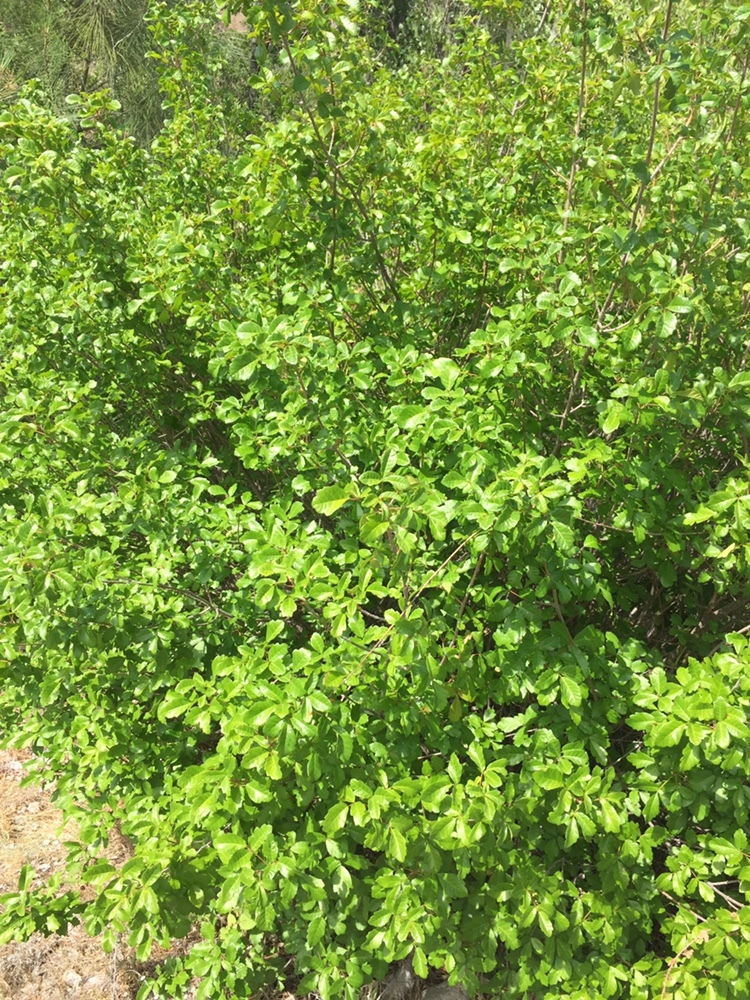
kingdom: Plantae
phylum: Tracheophyta
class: Magnoliopsida
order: Sapindales
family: Anacardiaceae
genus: Toxicodendron
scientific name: Toxicodendron diversilobum
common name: Pacific poison-oak
